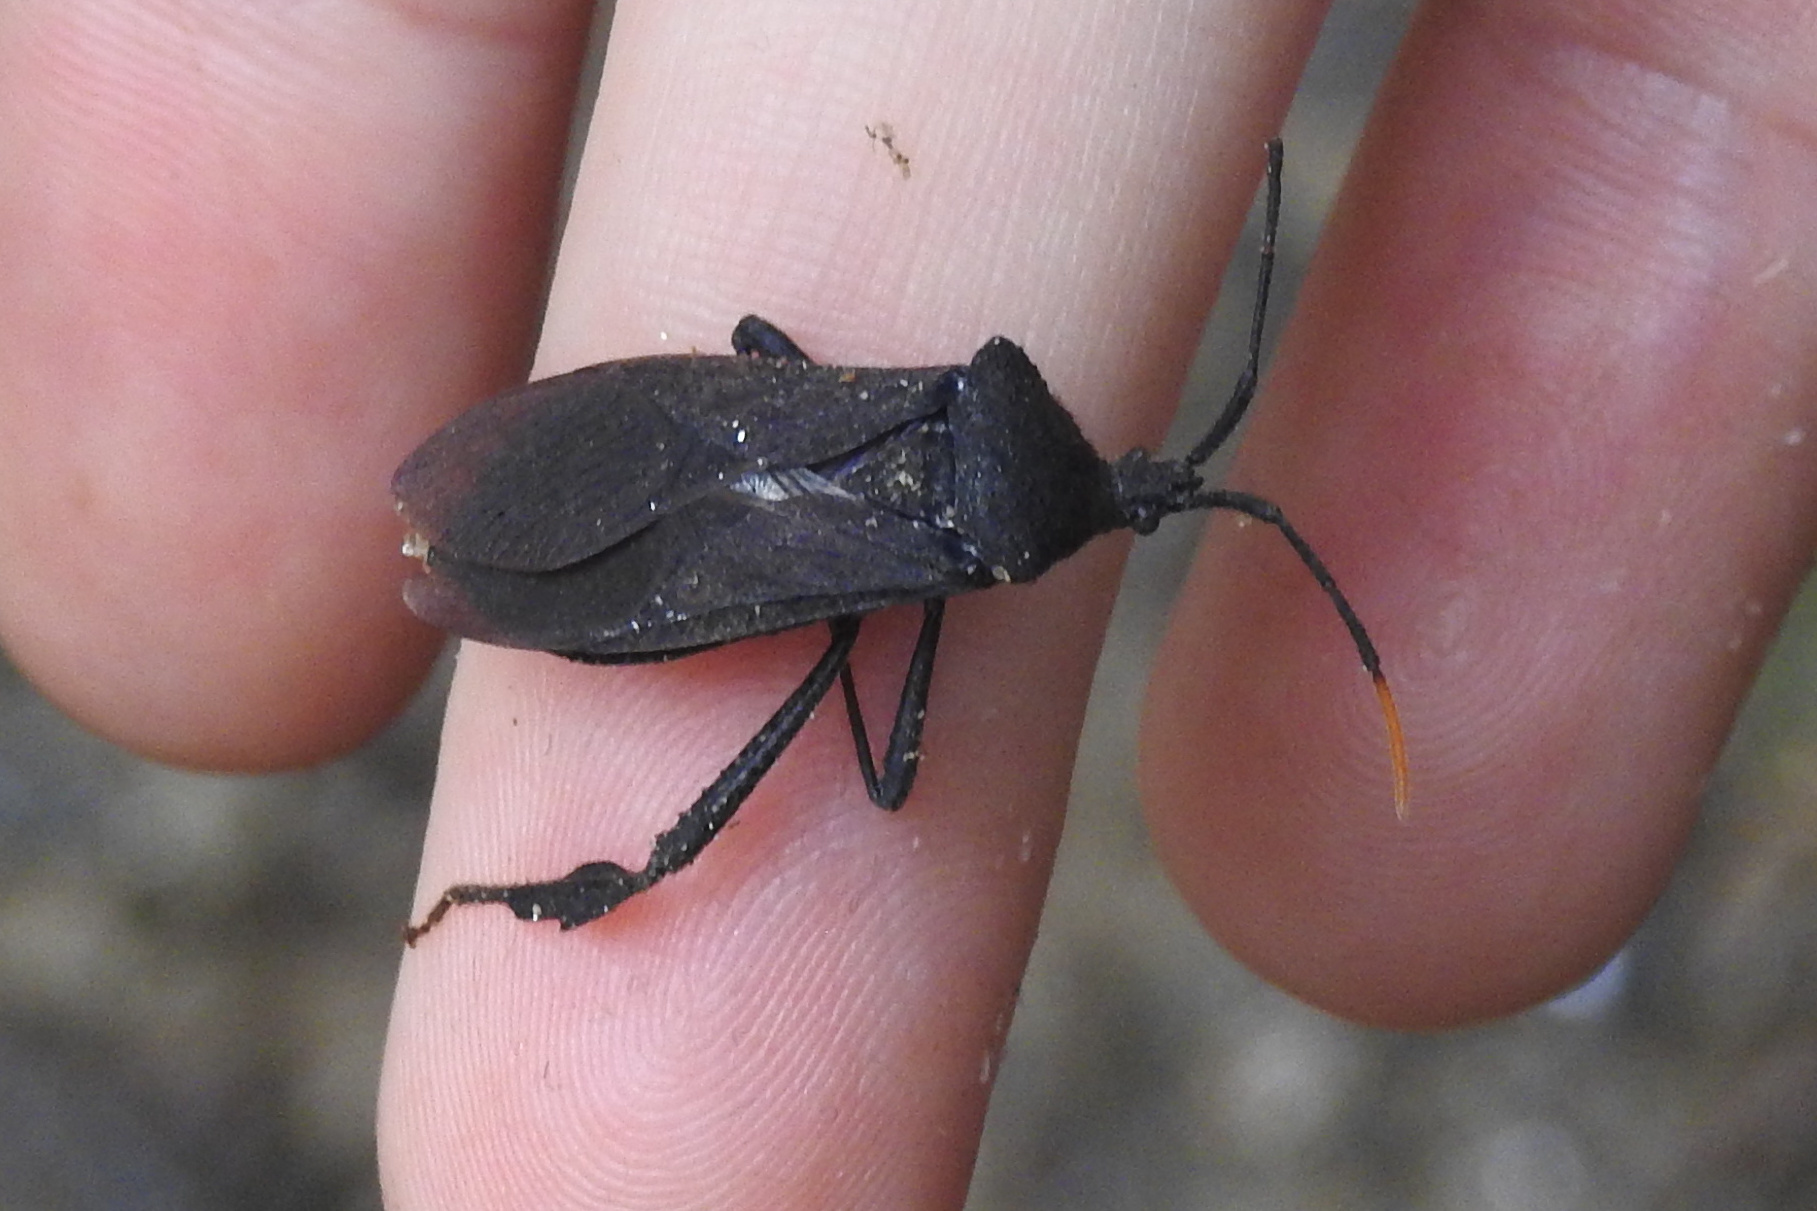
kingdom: Animalia
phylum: Arthropoda
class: Insecta
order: Hemiptera
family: Coreidae
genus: Acanthocephala
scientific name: Acanthocephala terminalis
